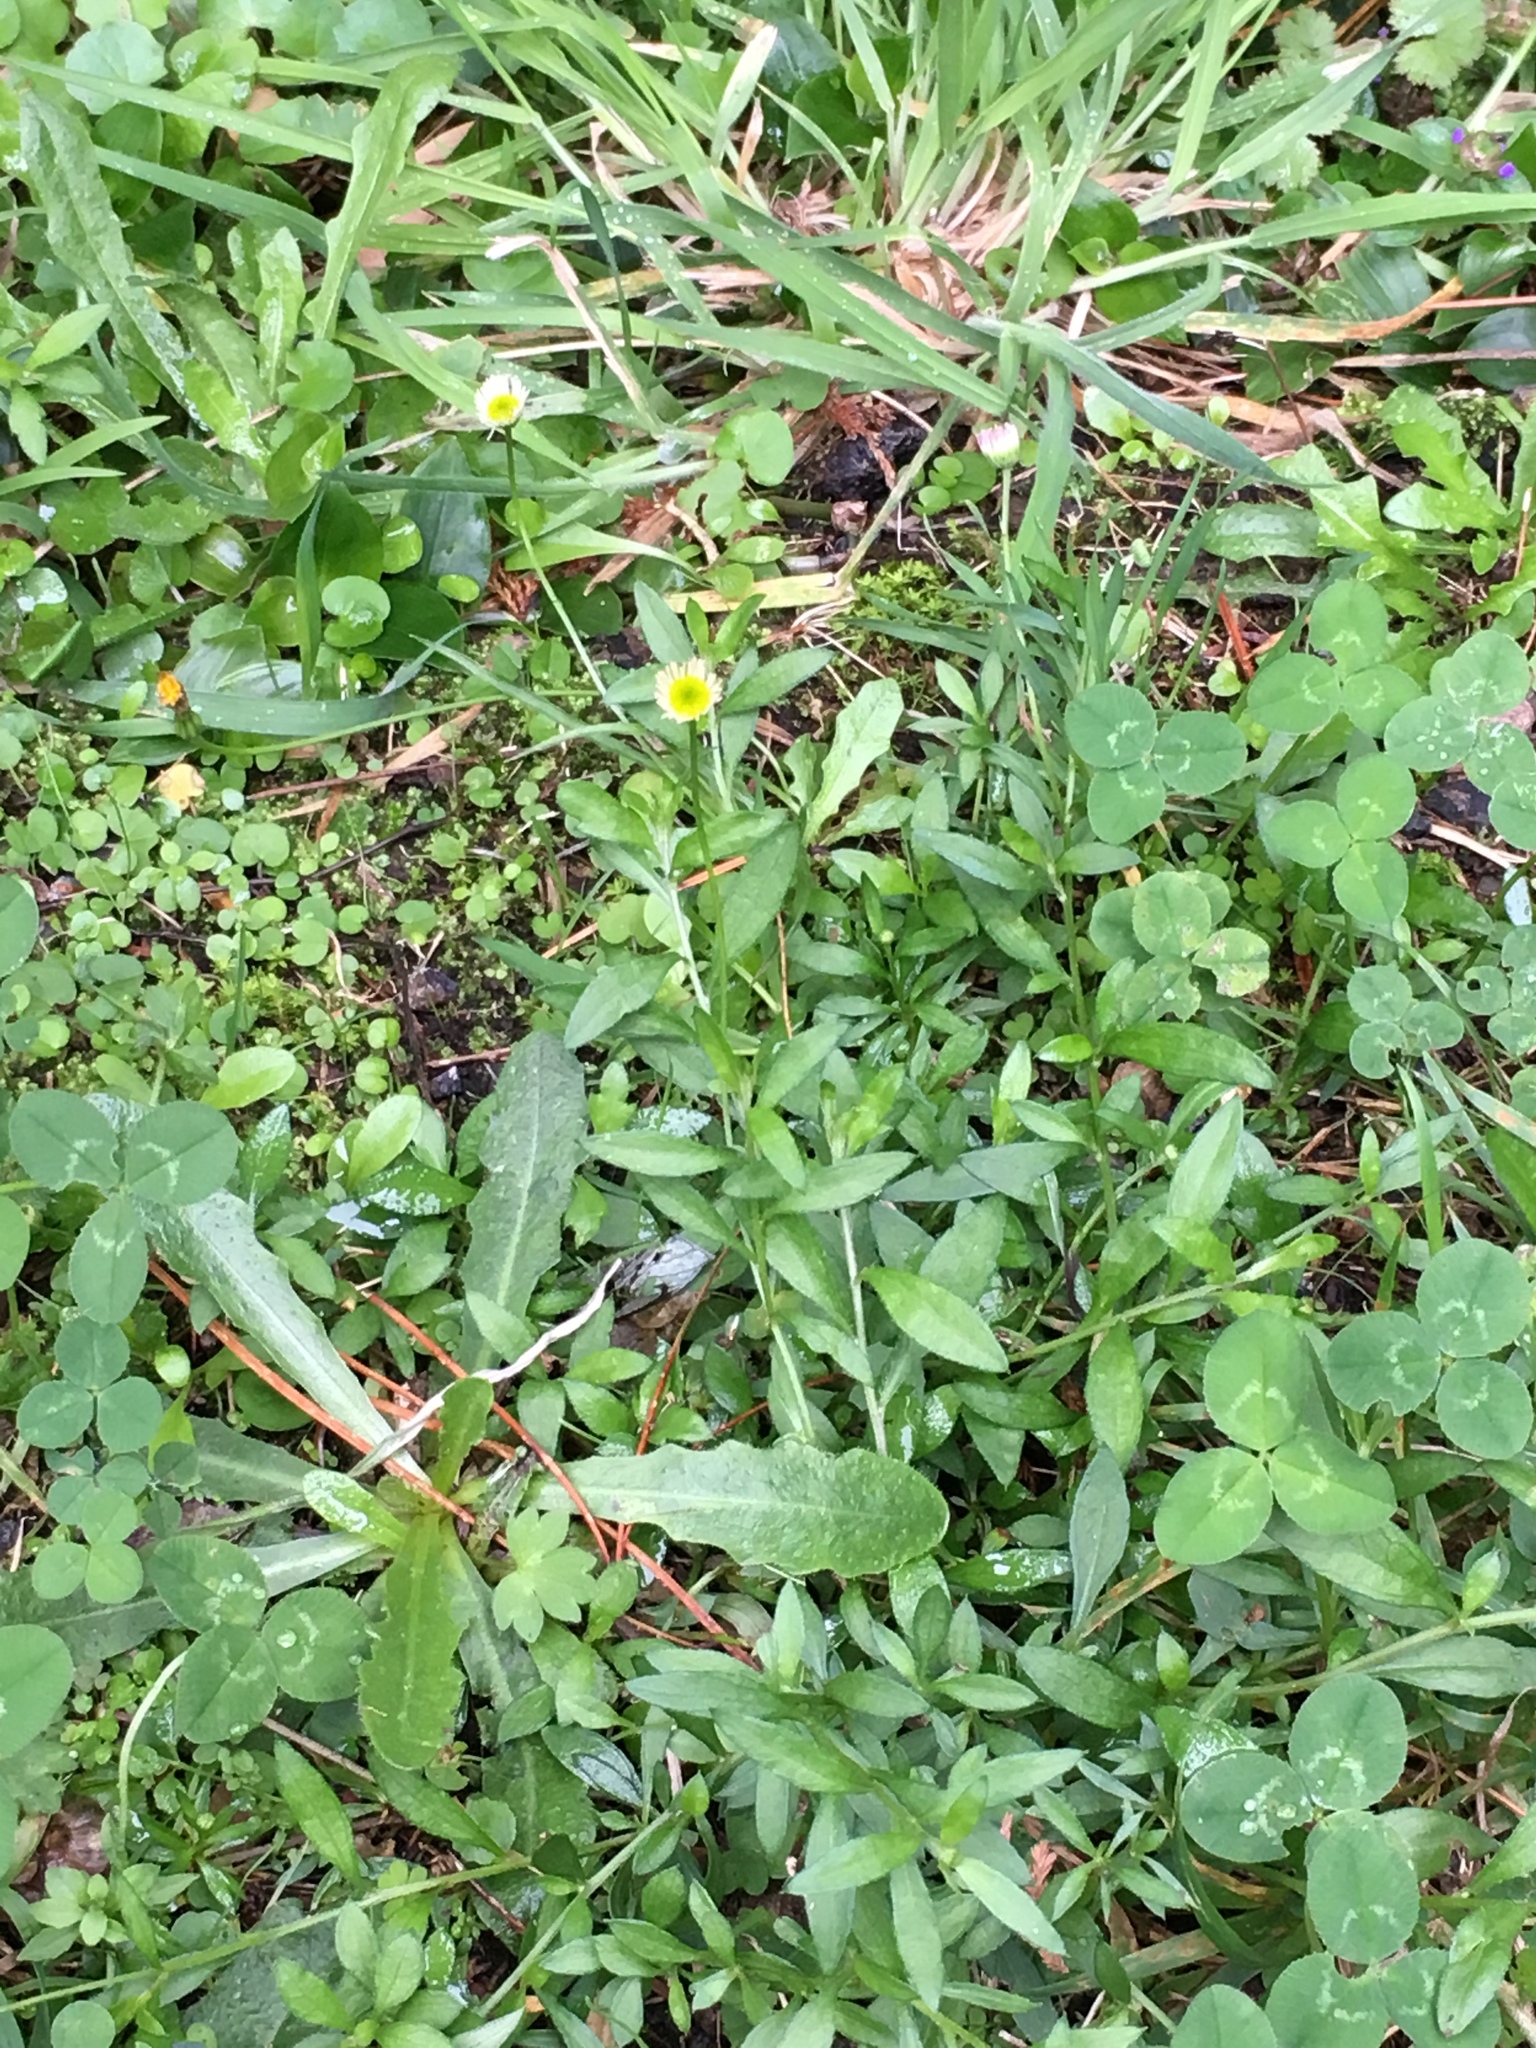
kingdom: Plantae
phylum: Tracheophyta
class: Magnoliopsida
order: Asterales
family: Asteraceae
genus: Erigeron
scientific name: Erigeron karvinskianus
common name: Mexican fleabane
